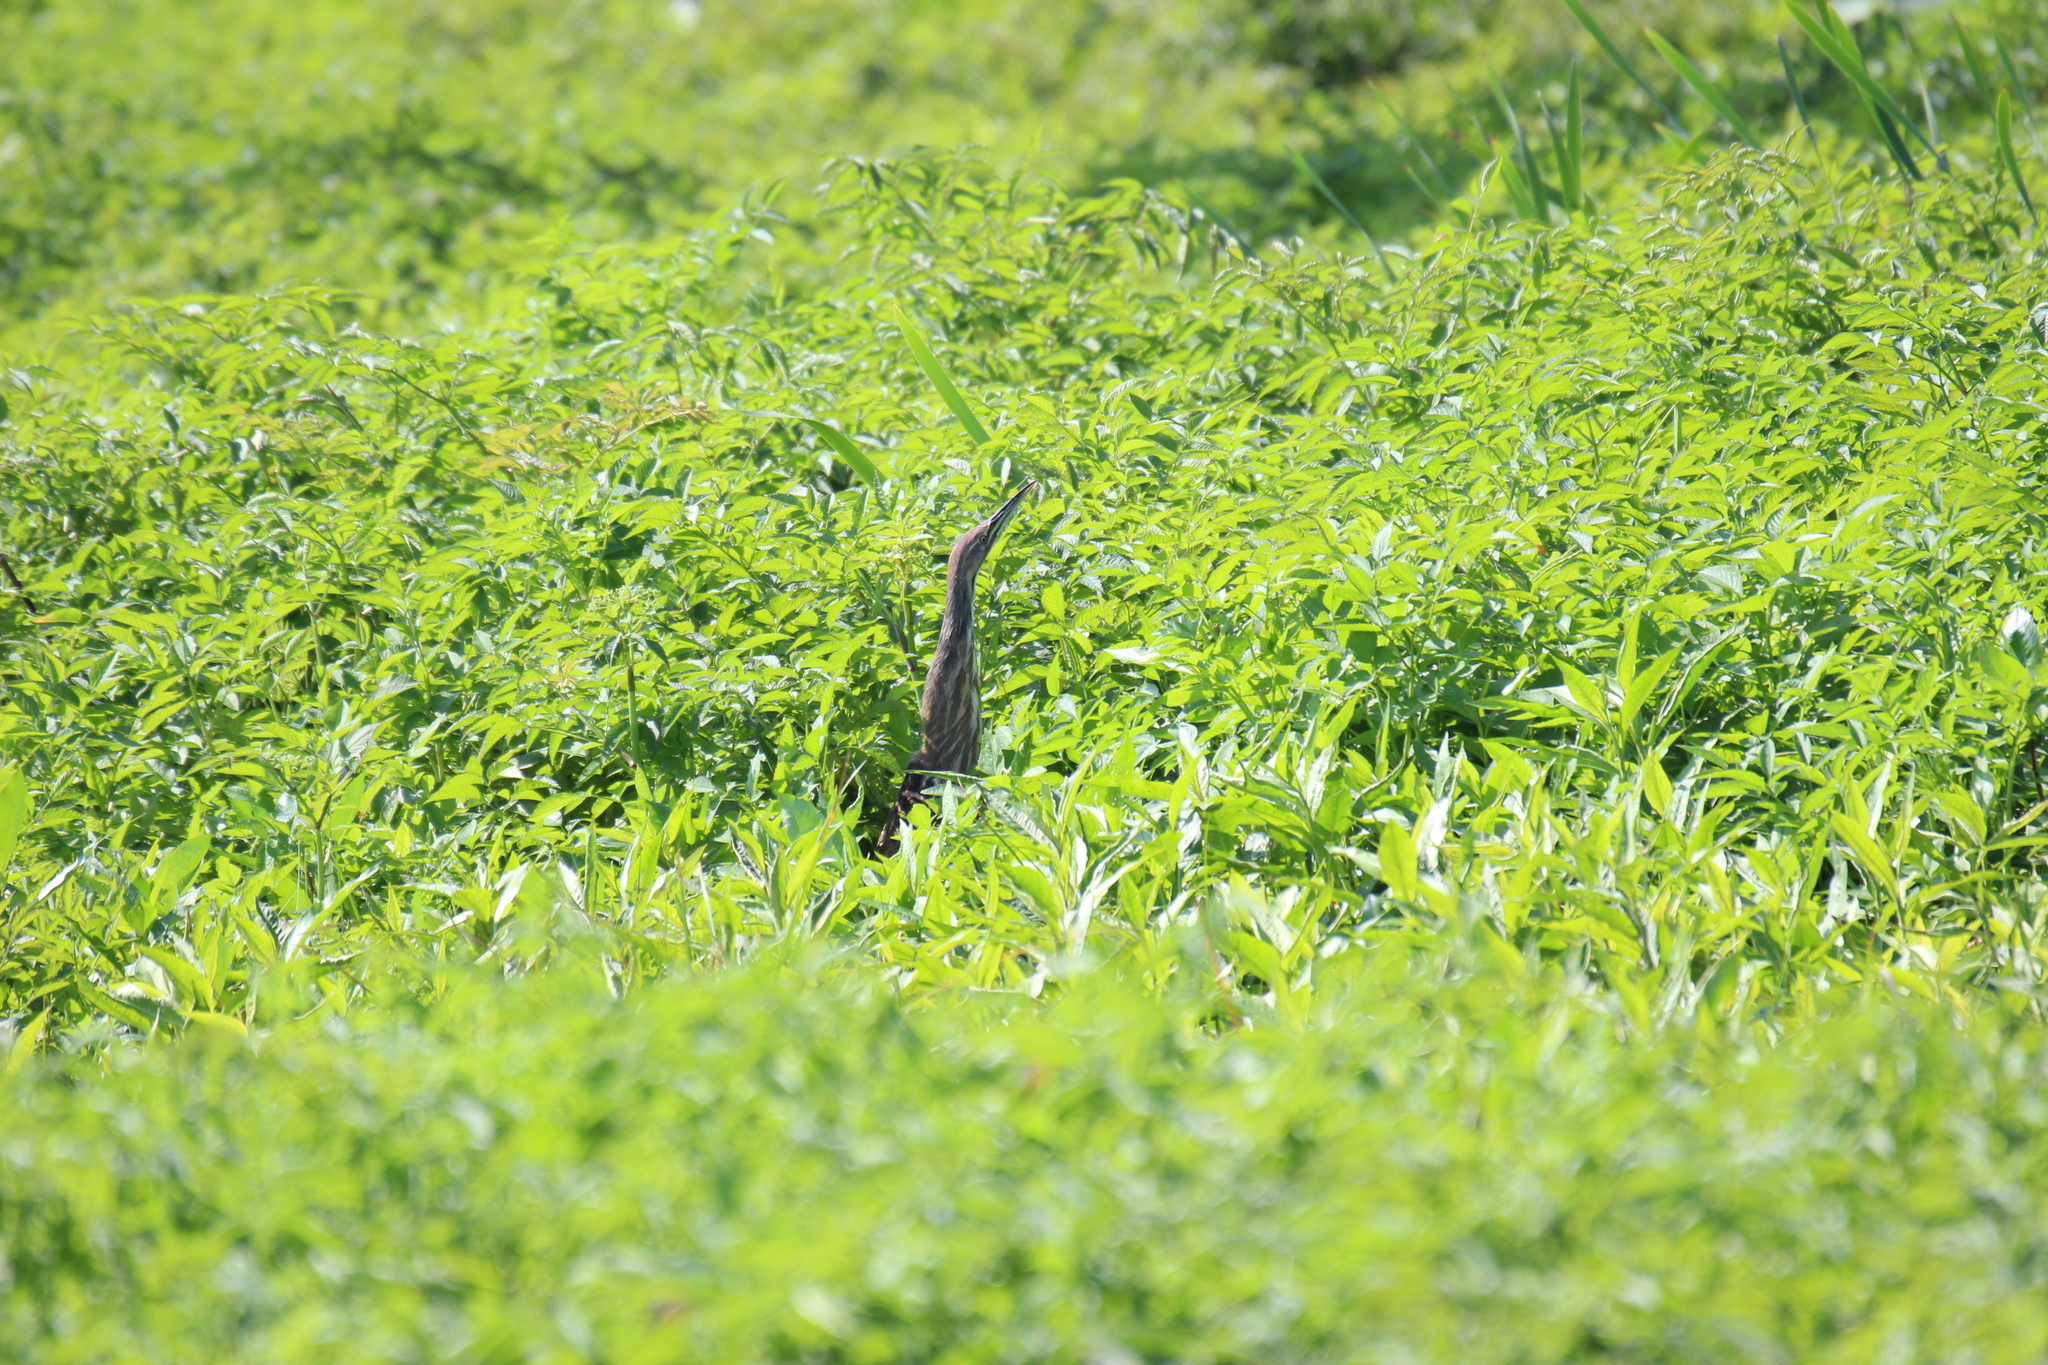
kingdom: Animalia
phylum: Chordata
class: Aves
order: Pelecaniformes
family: Ardeidae
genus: Botaurus
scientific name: Botaurus lentiginosus
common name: American bittern
